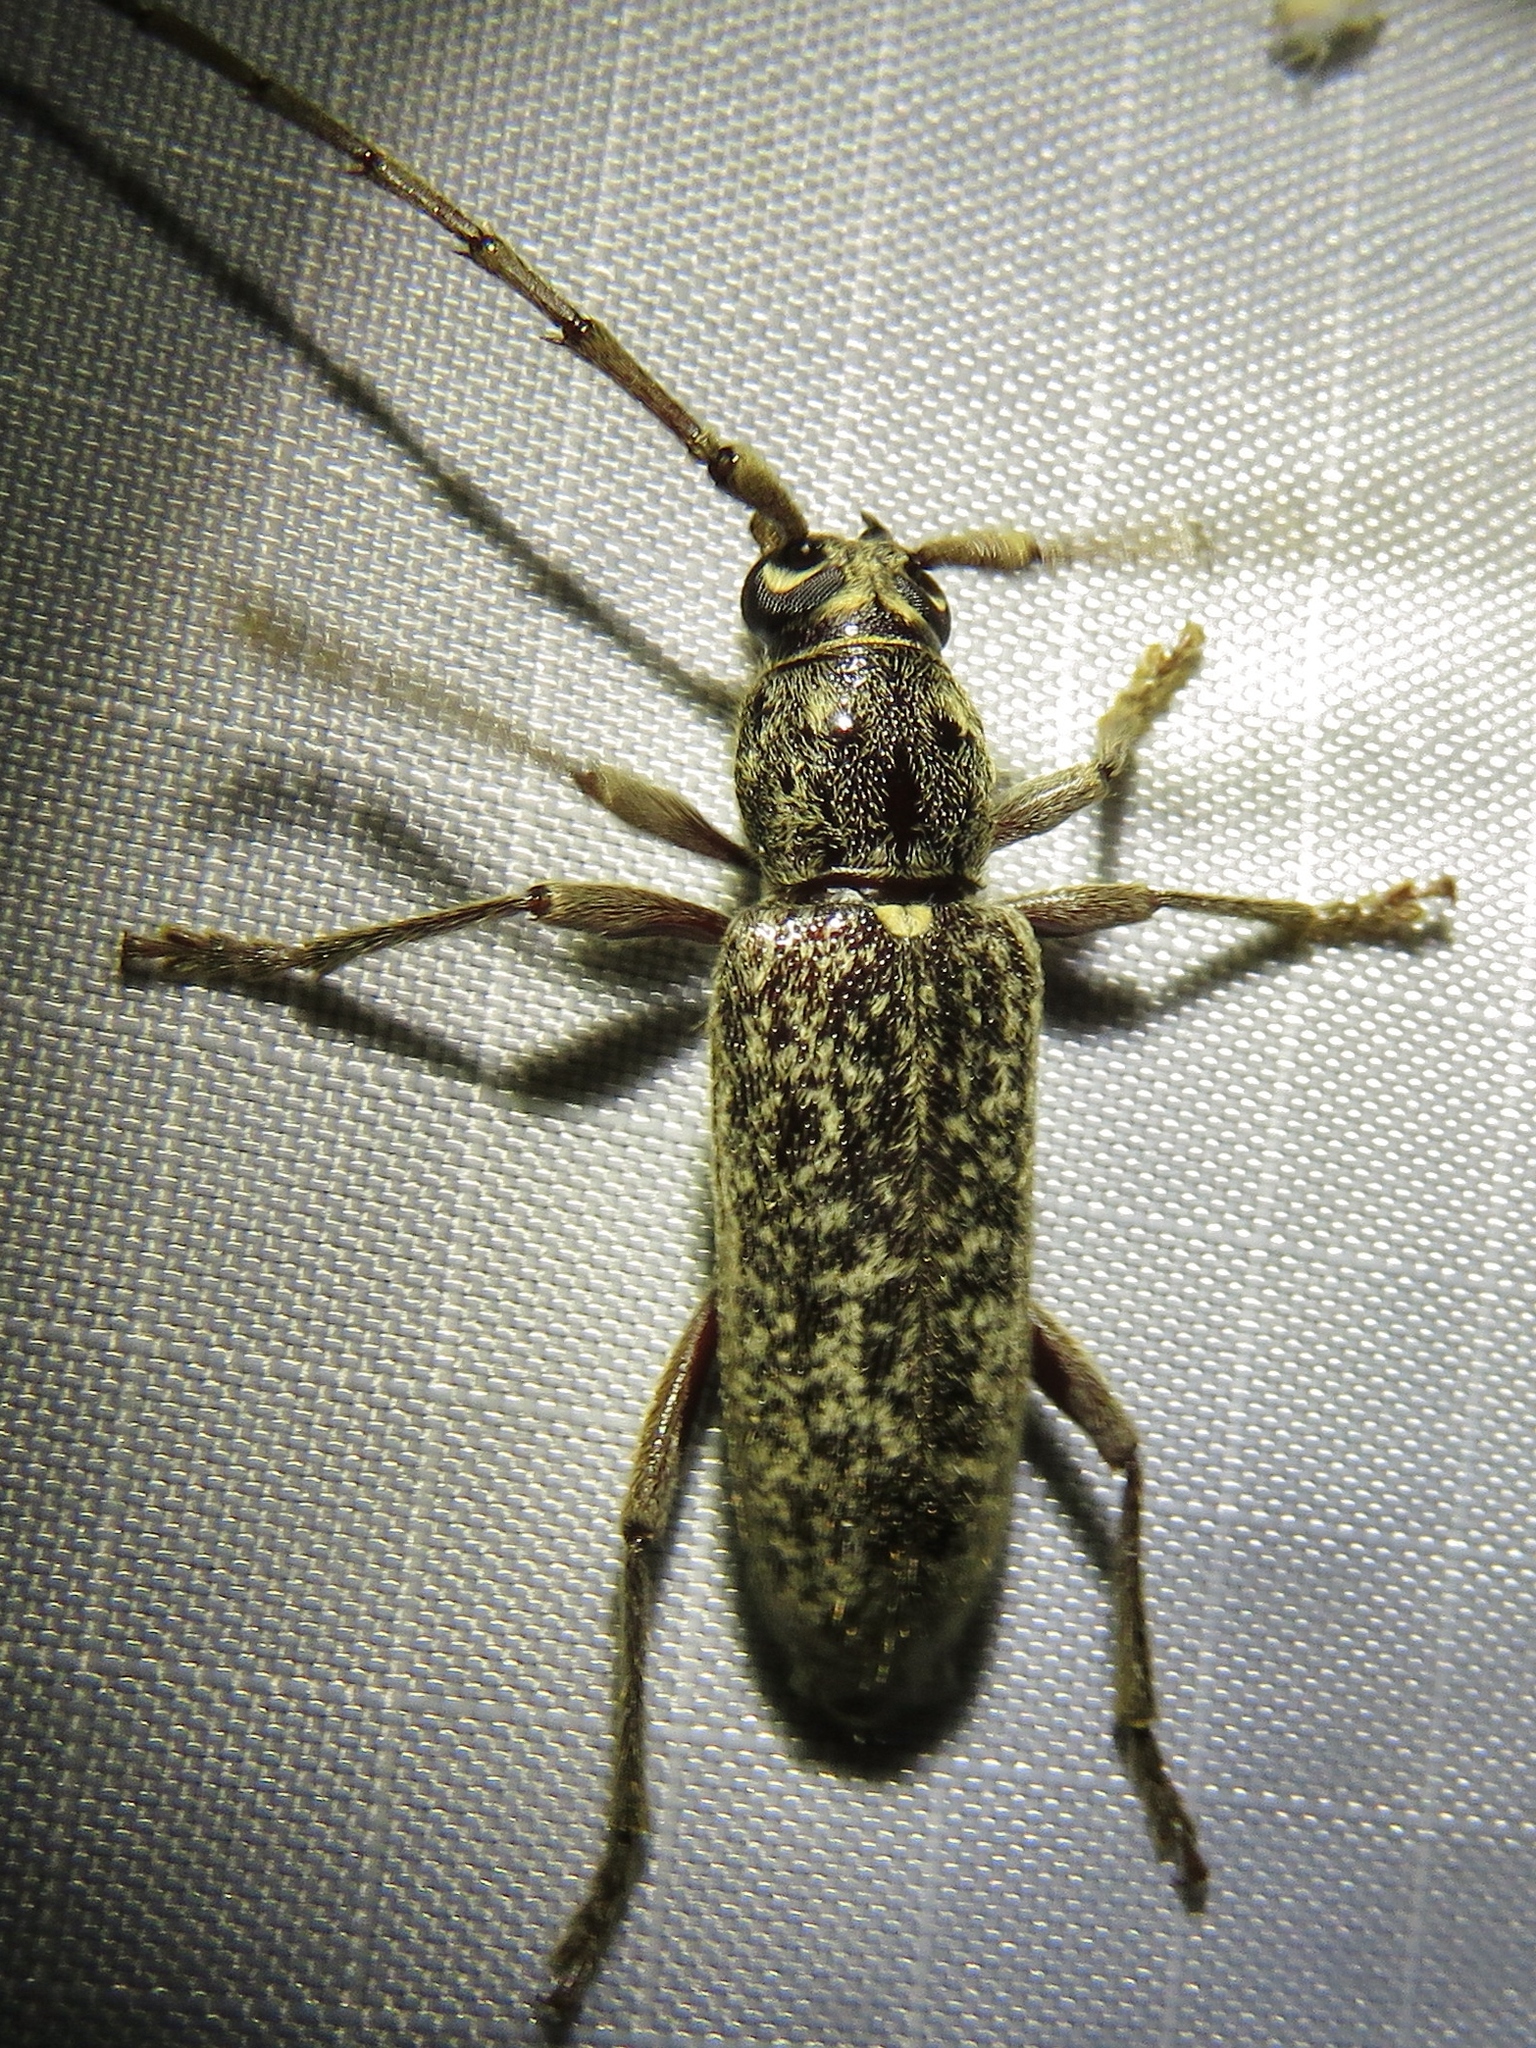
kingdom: Animalia
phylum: Arthropoda
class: Insecta
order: Coleoptera
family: Cerambycidae
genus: Elaphidion
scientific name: Elaphidion mucronatum
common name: Spined oak borer
